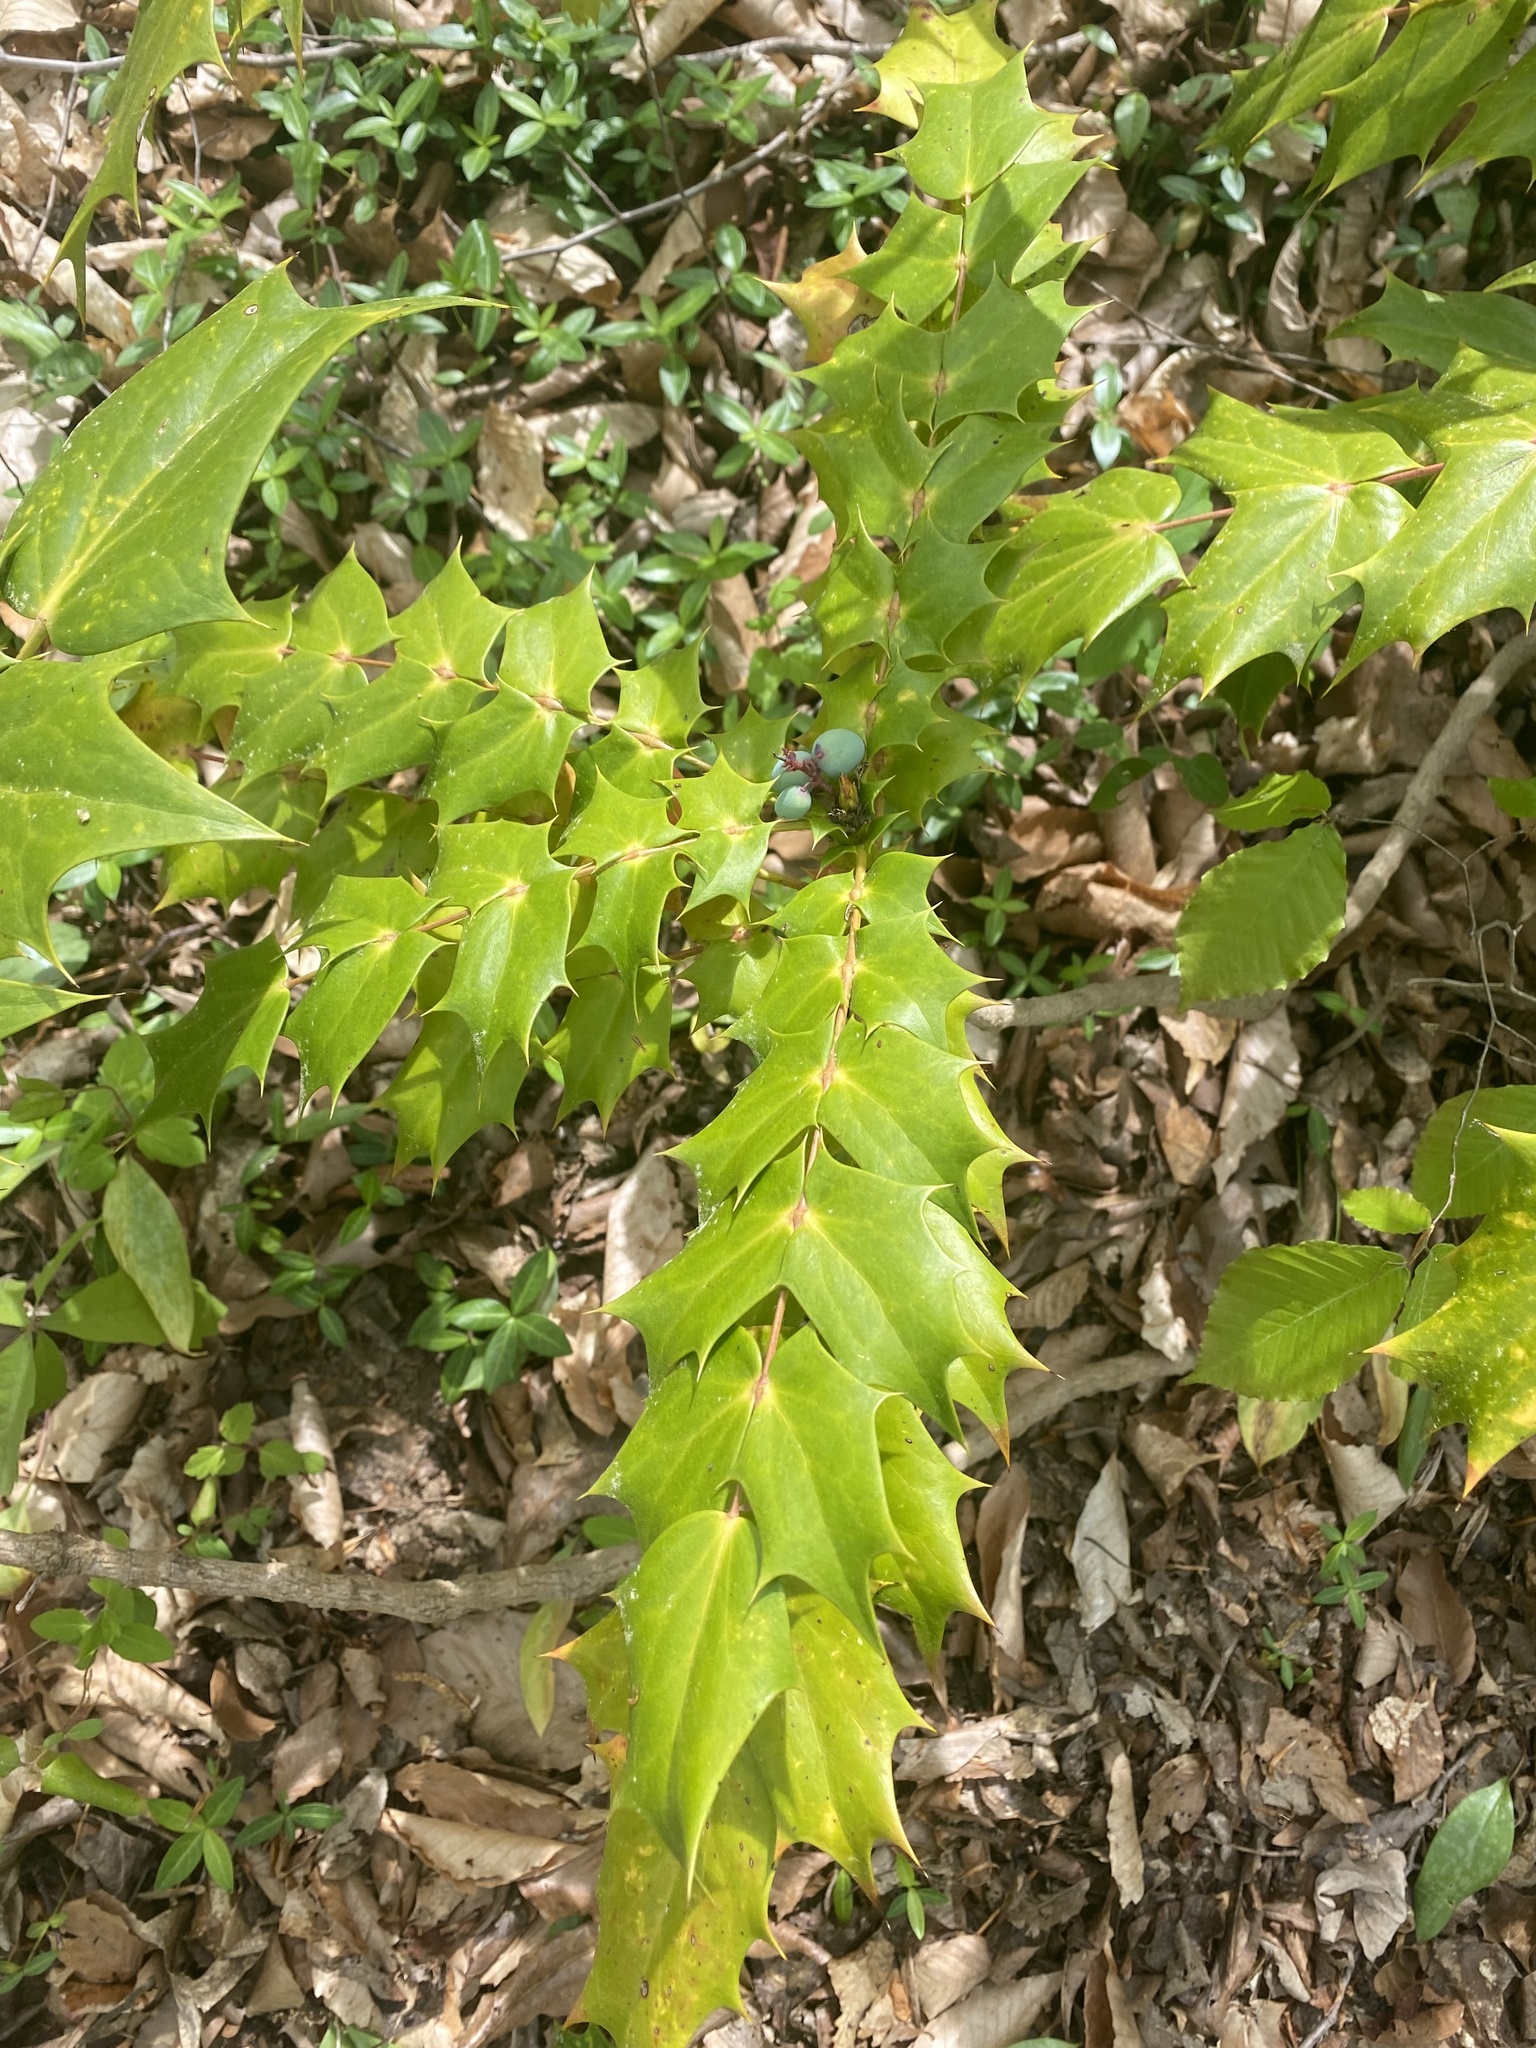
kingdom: Plantae
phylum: Tracheophyta
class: Magnoliopsida
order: Ranunculales
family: Berberidaceae
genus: Mahonia
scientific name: Mahonia bealei
